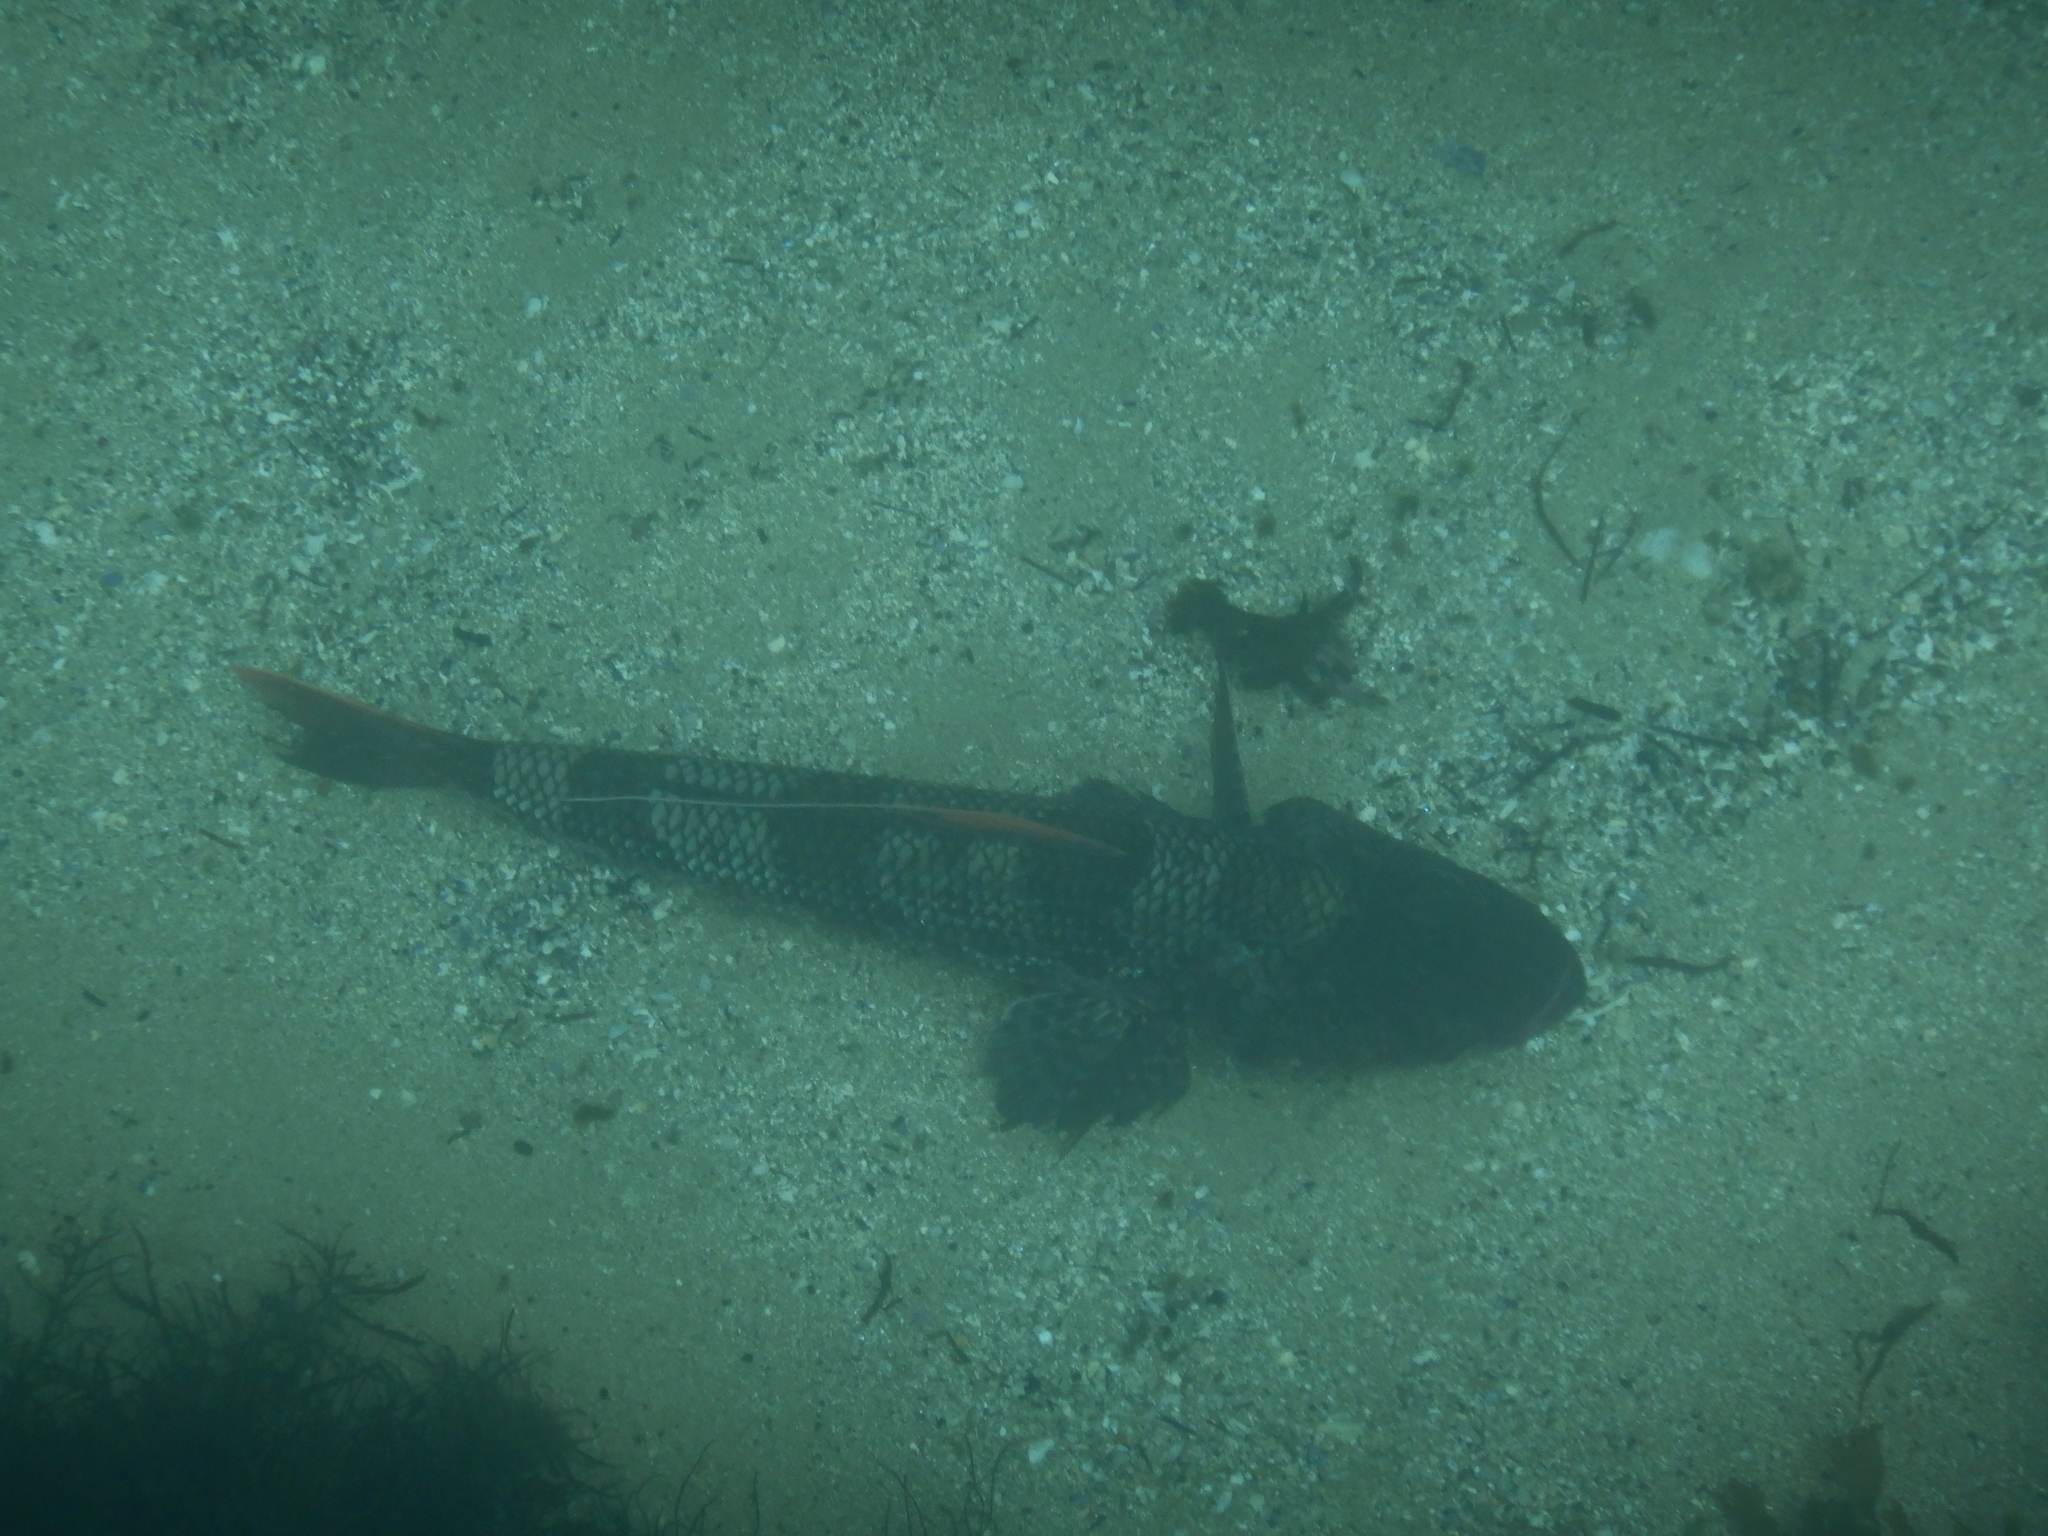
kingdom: Animalia
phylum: Chordata
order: Aulopiformes
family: Aulopidae
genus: Latropiscis
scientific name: Latropiscis purpurissatus
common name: Sergeant baker
